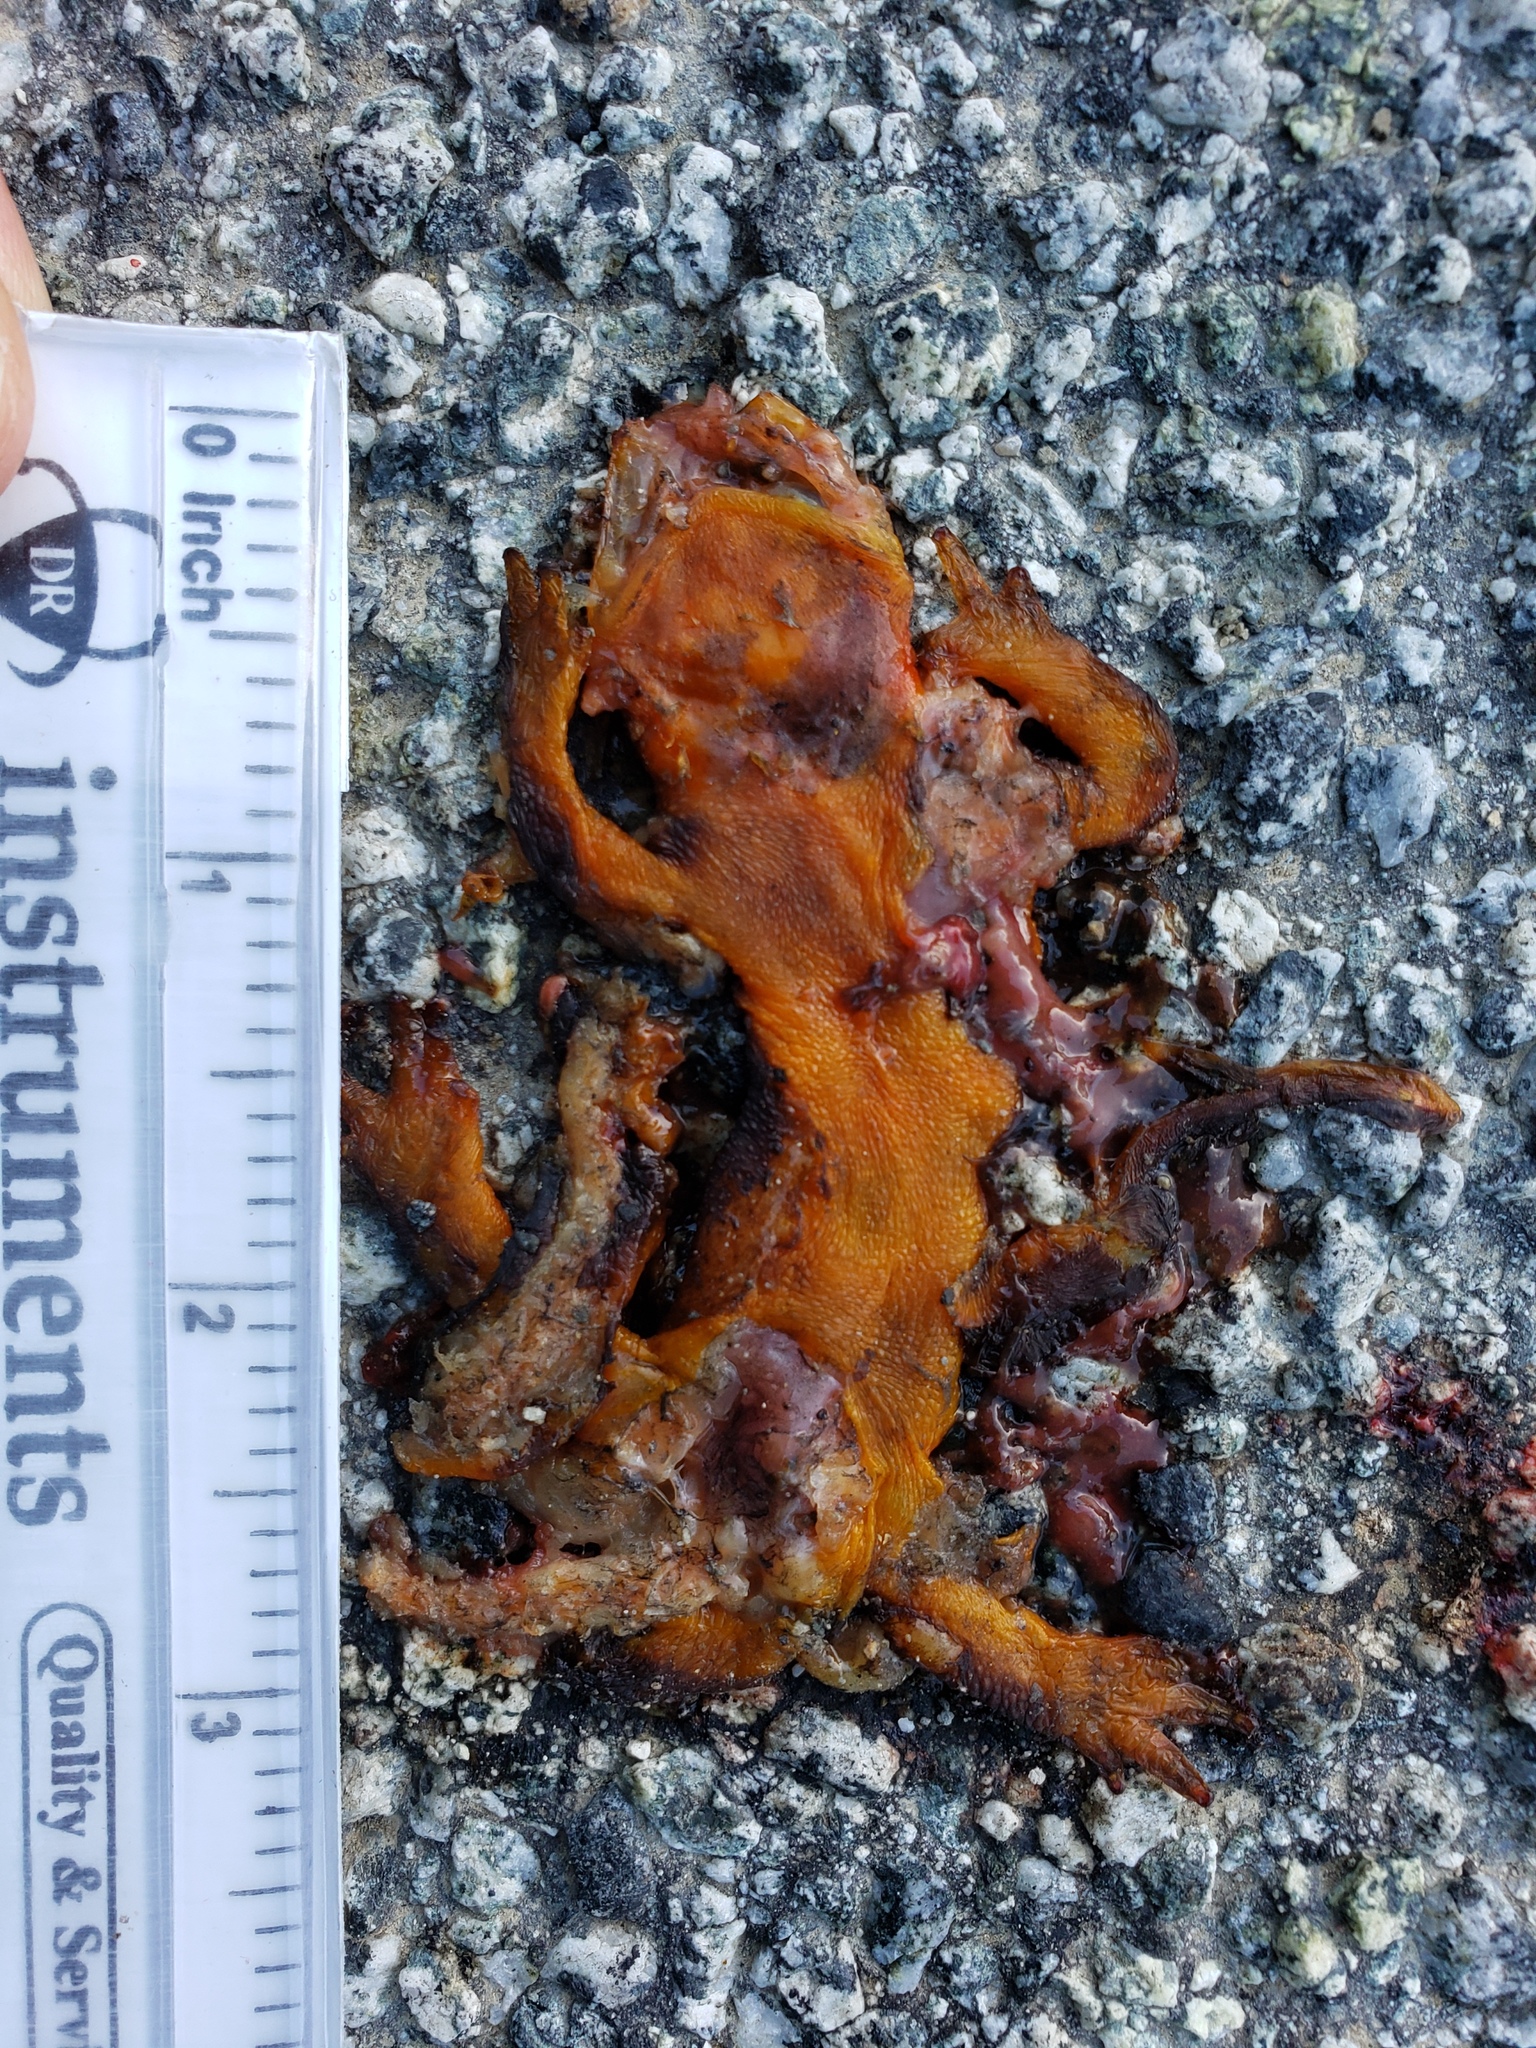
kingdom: Animalia
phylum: Chordata
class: Amphibia
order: Caudata
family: Salamandridae
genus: Taricha
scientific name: Taricha
